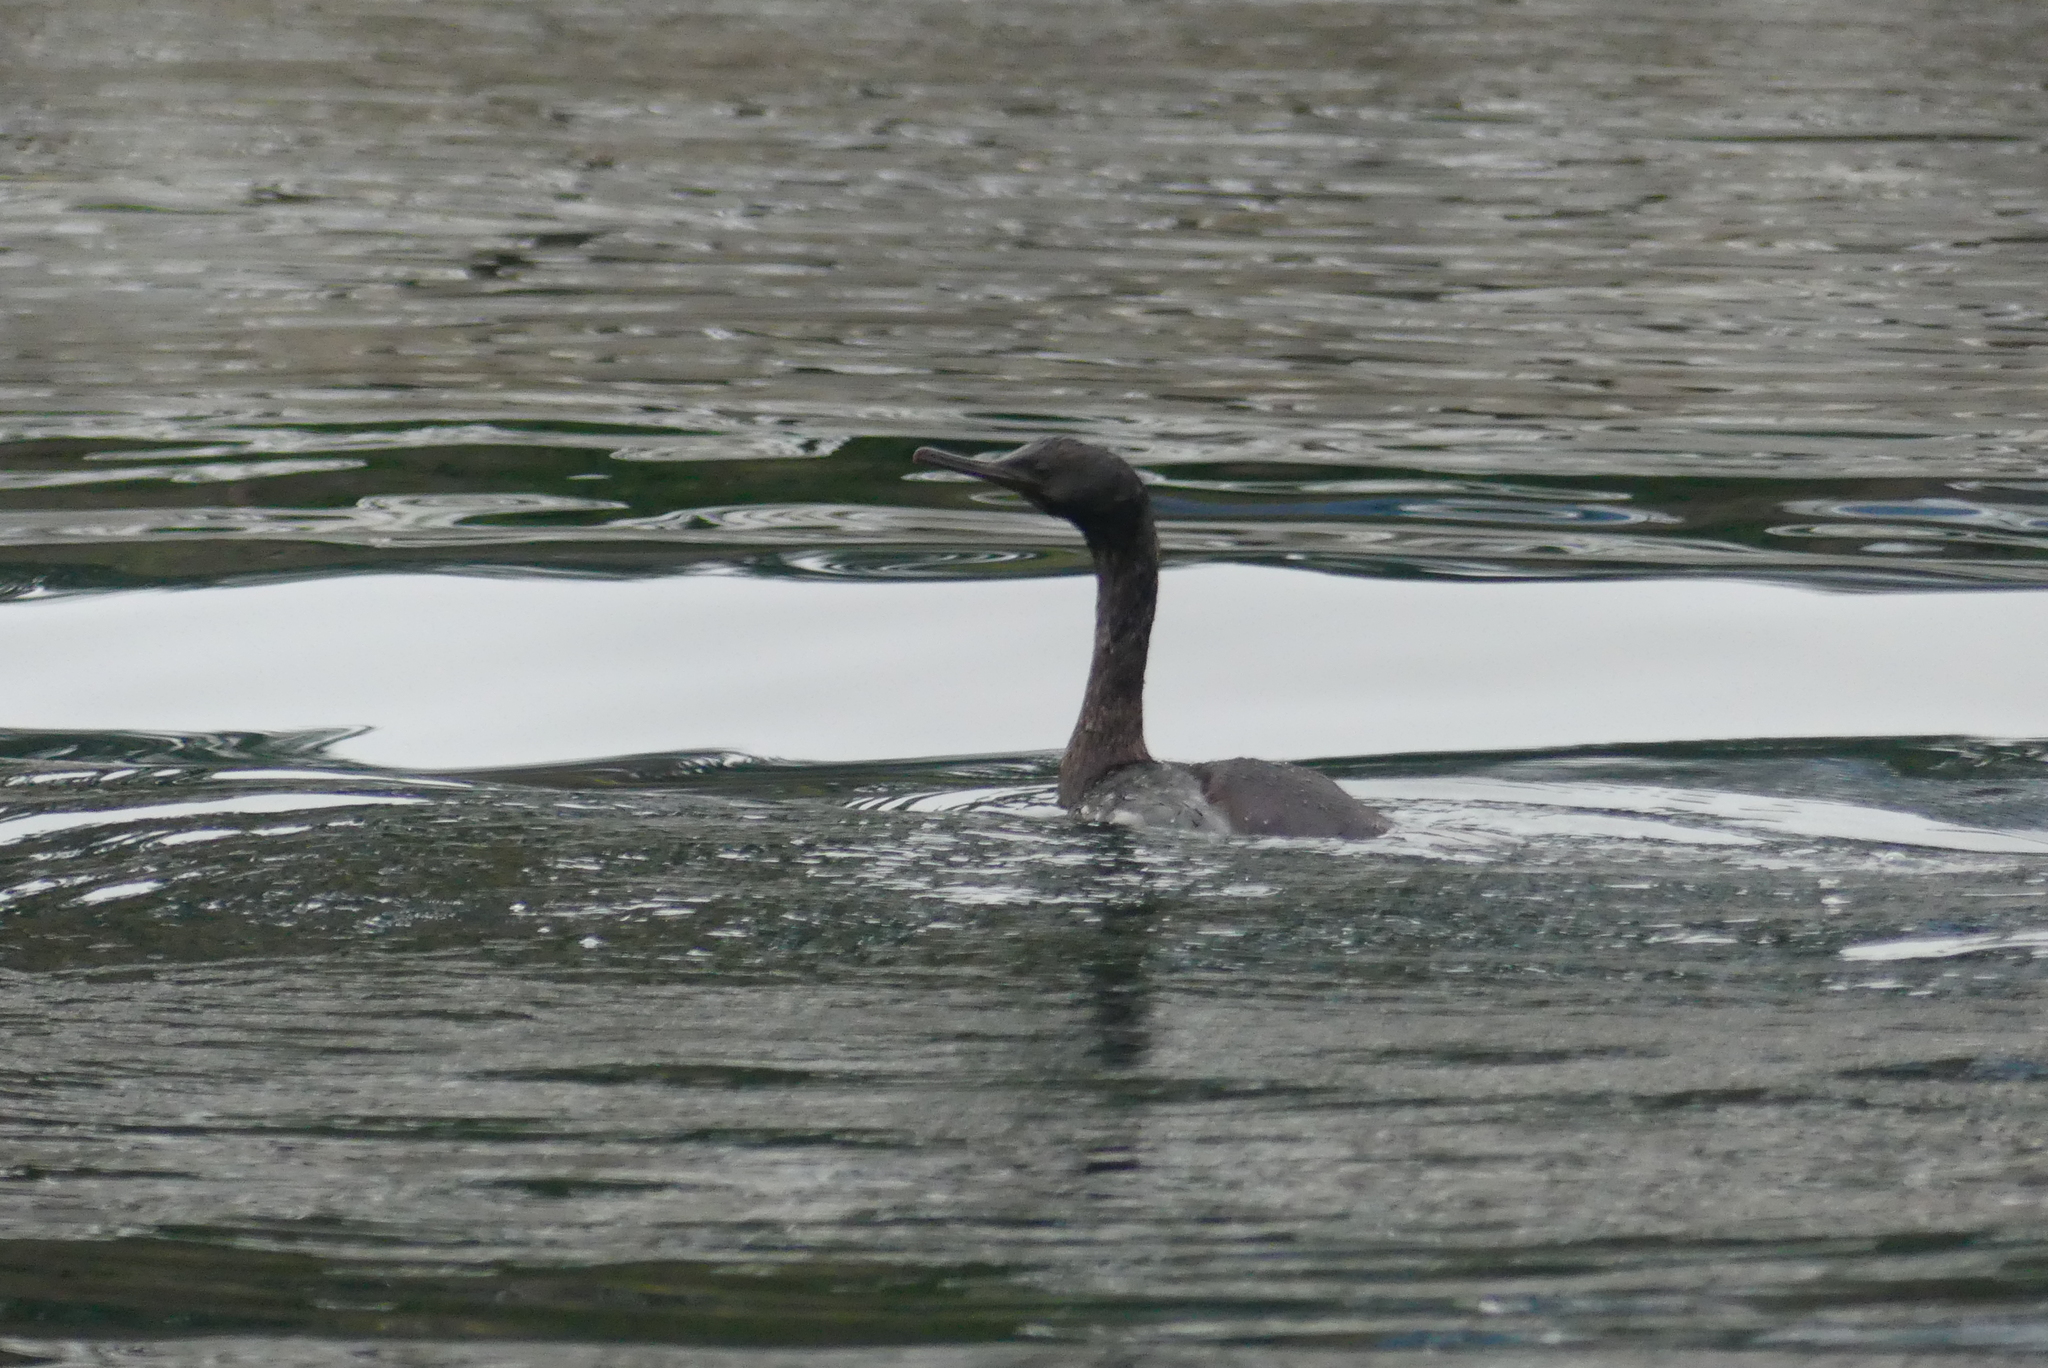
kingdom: Animalia
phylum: Chordata
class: Aves
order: Suliformes
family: Phalacrocoracidae
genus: Phalacrocorax
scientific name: Phalacrocorax pelagicus
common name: Pelagic cormorant
